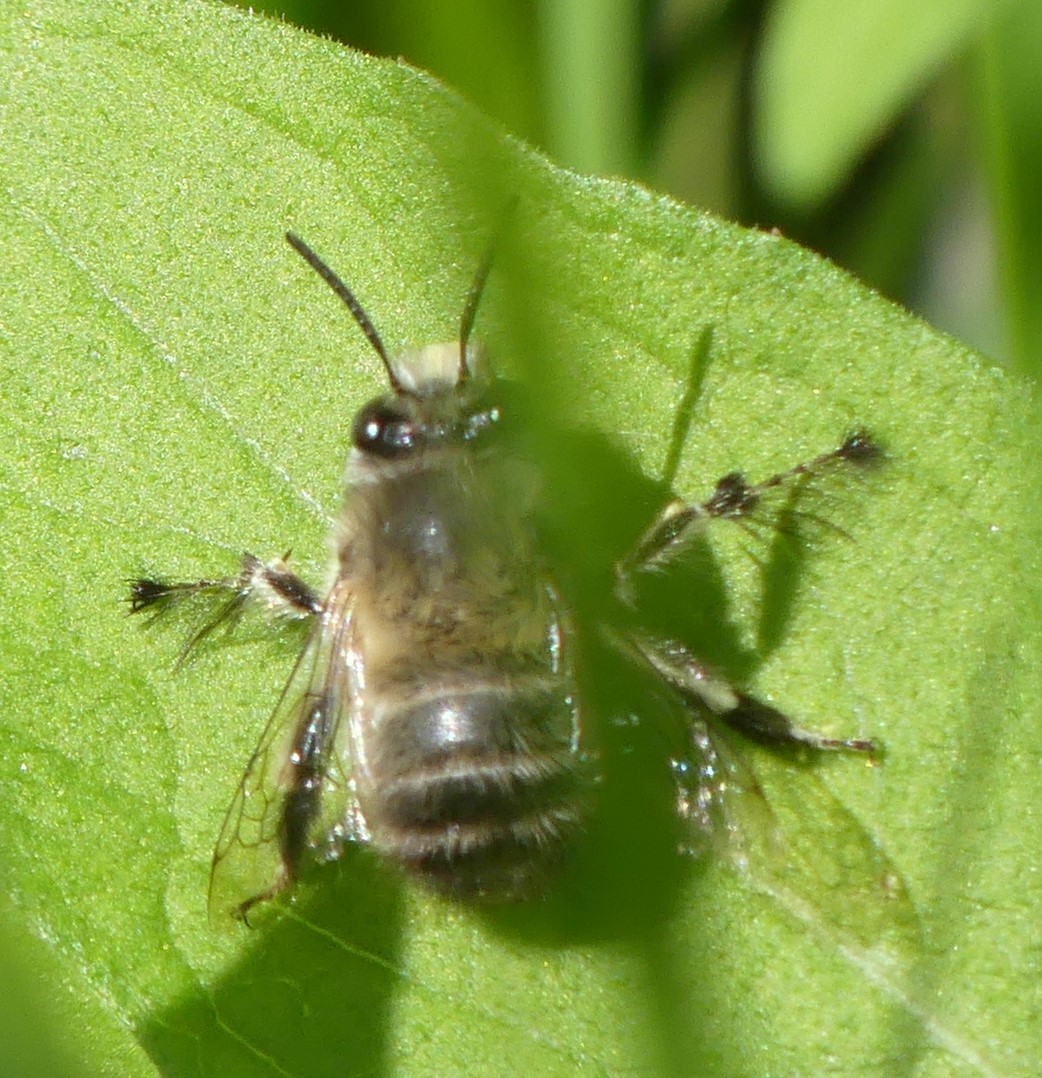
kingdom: Animalia
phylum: Arthropoda
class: Insecta
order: Hymenoptera
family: Apidae
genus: Anthophora
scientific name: Anthophora plumipes
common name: Hairy-footed flower bee
